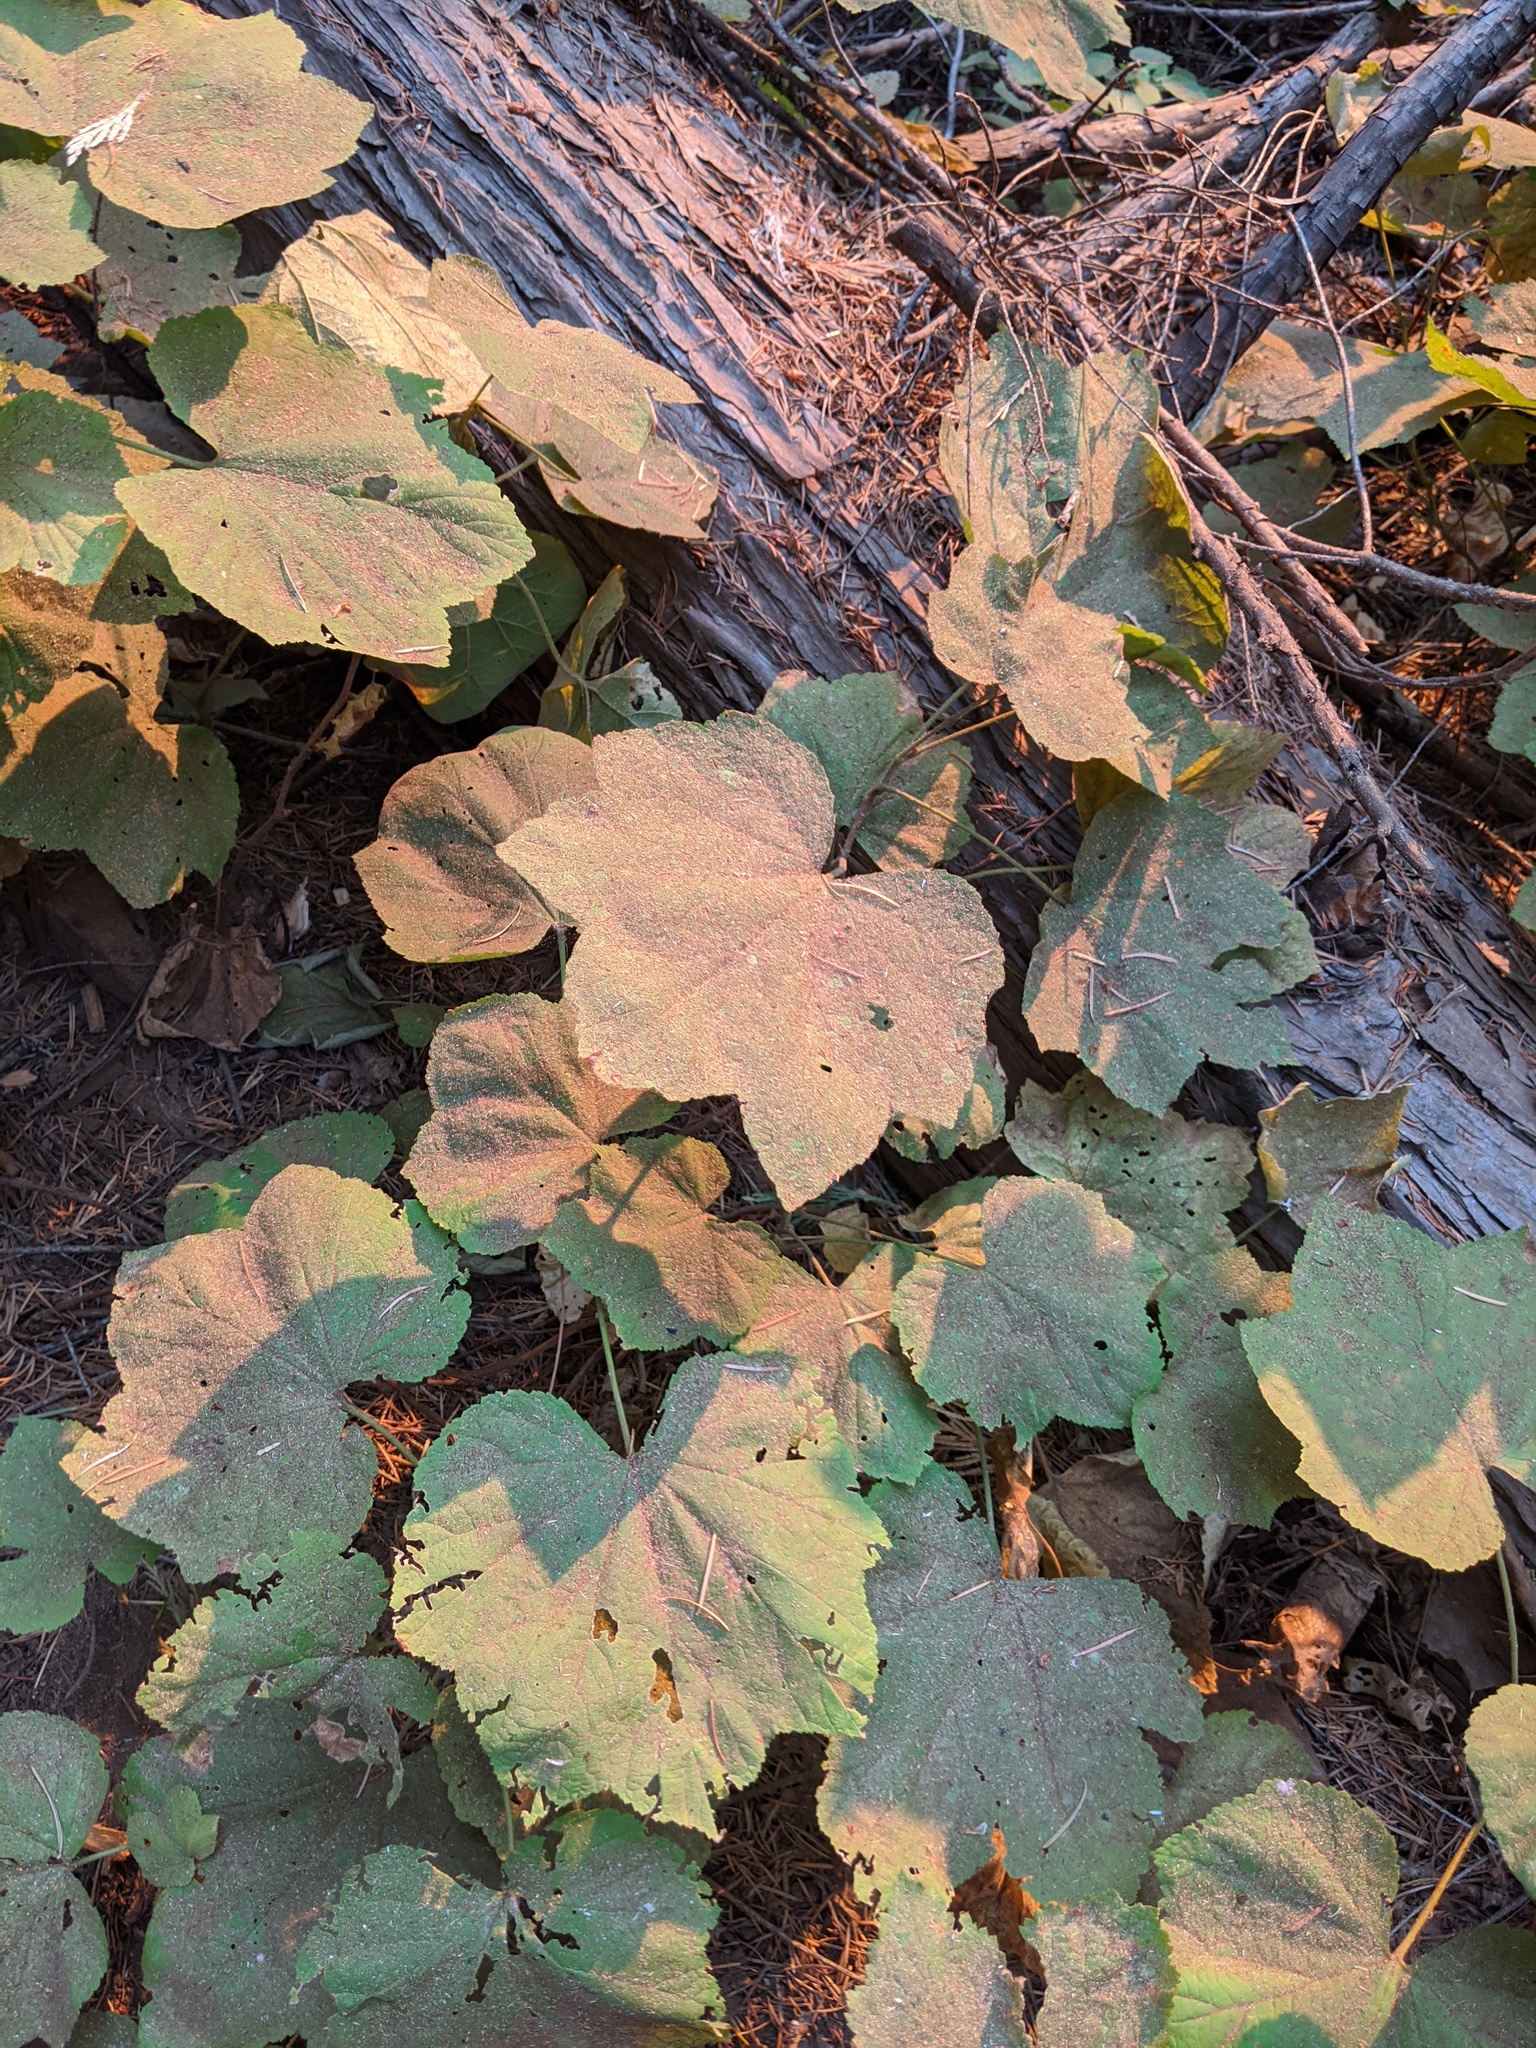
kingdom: Plantae
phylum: Tracheophyta
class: Magnoliopsida
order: Rosales
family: Rosaceae
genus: Rubus
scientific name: Rubus parviflorus
